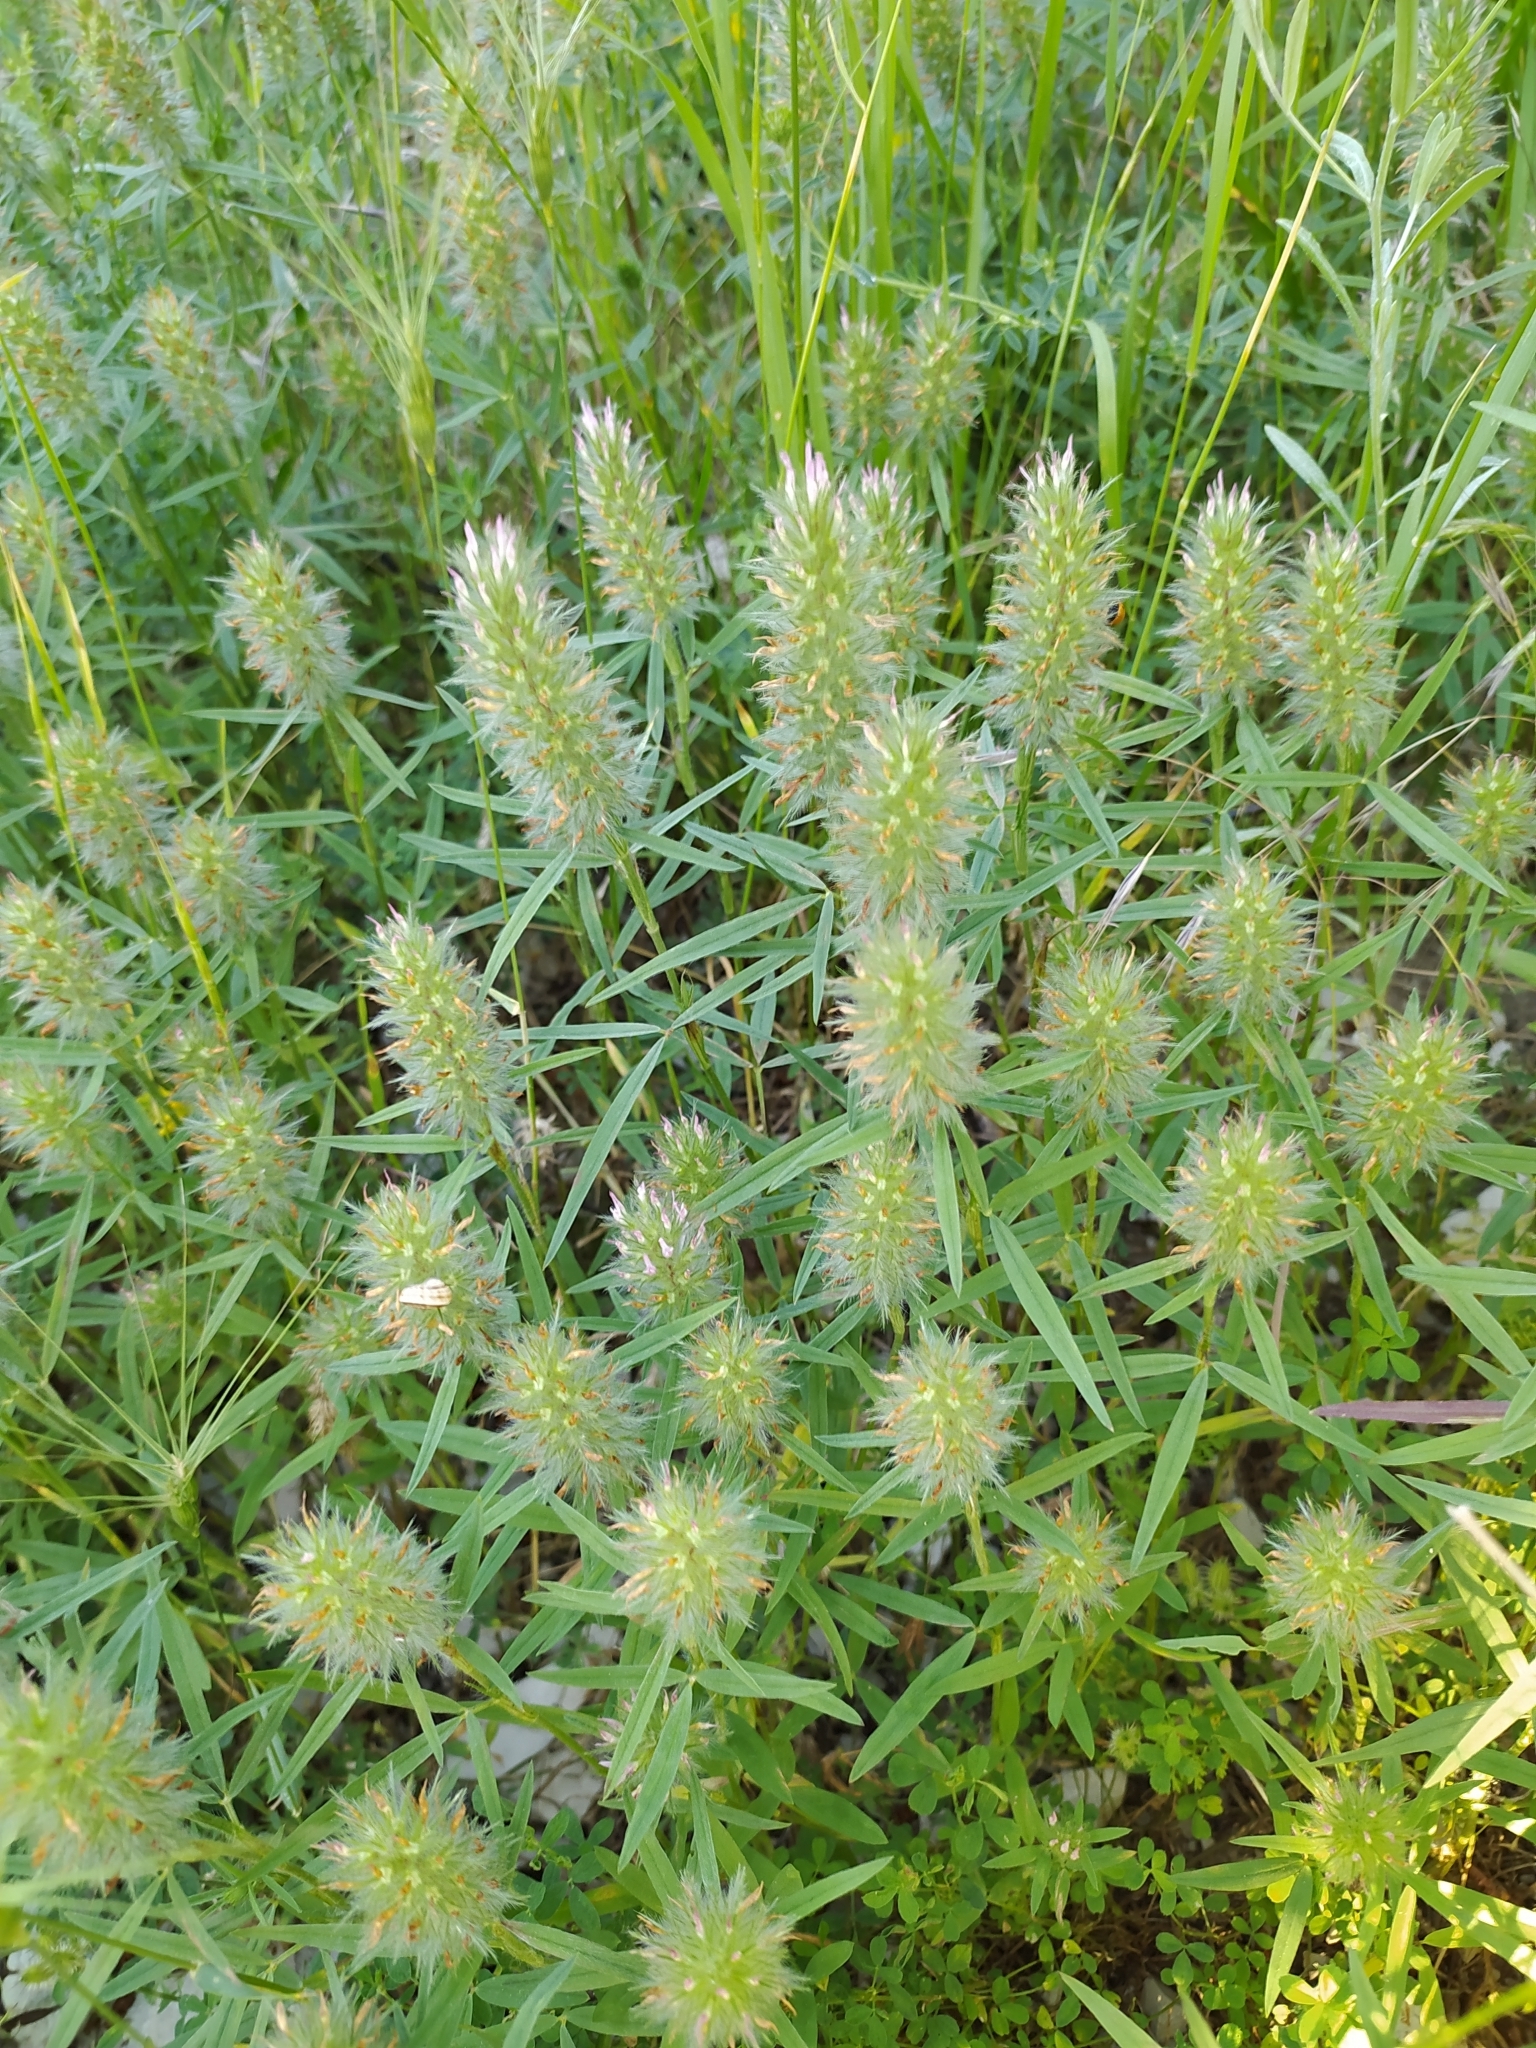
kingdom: Plantae
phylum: Tracheophyta
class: Magnoliopsida
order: Fabales
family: Fabaceae
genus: Trifolium
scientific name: Trifolium angustifolium
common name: Narrow clover
